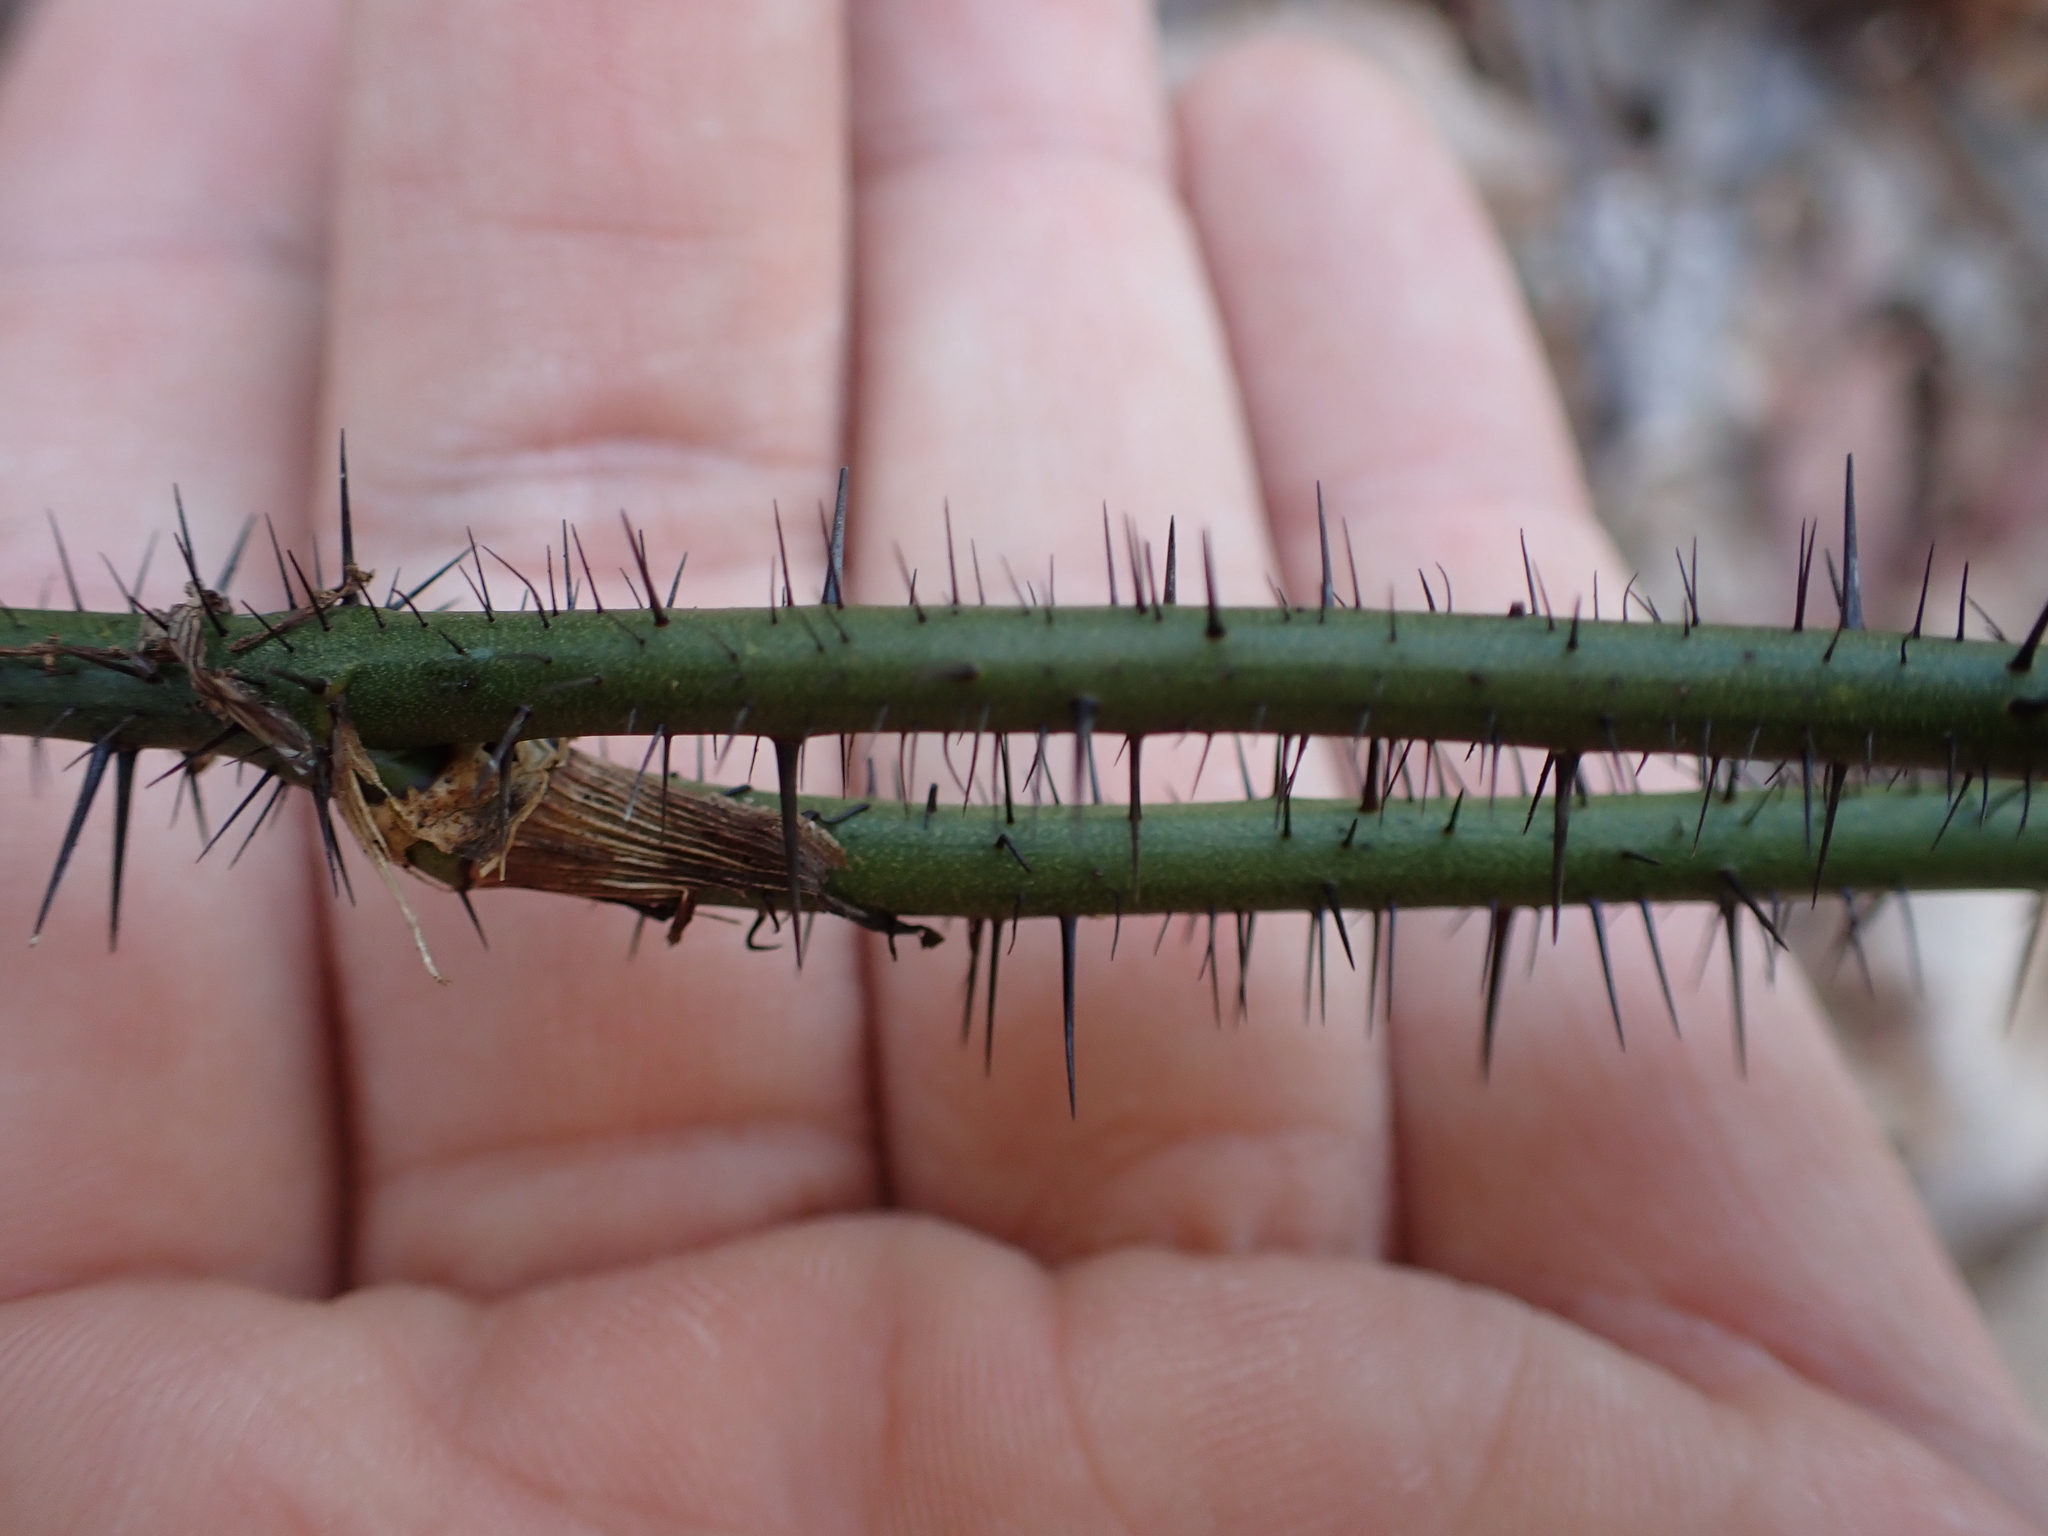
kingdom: Plantae
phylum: Tracheophyta
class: Liliopsida
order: Liliales
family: Smilacaceae
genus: Smilax
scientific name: Smilax tamnoides
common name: Hellfetter
